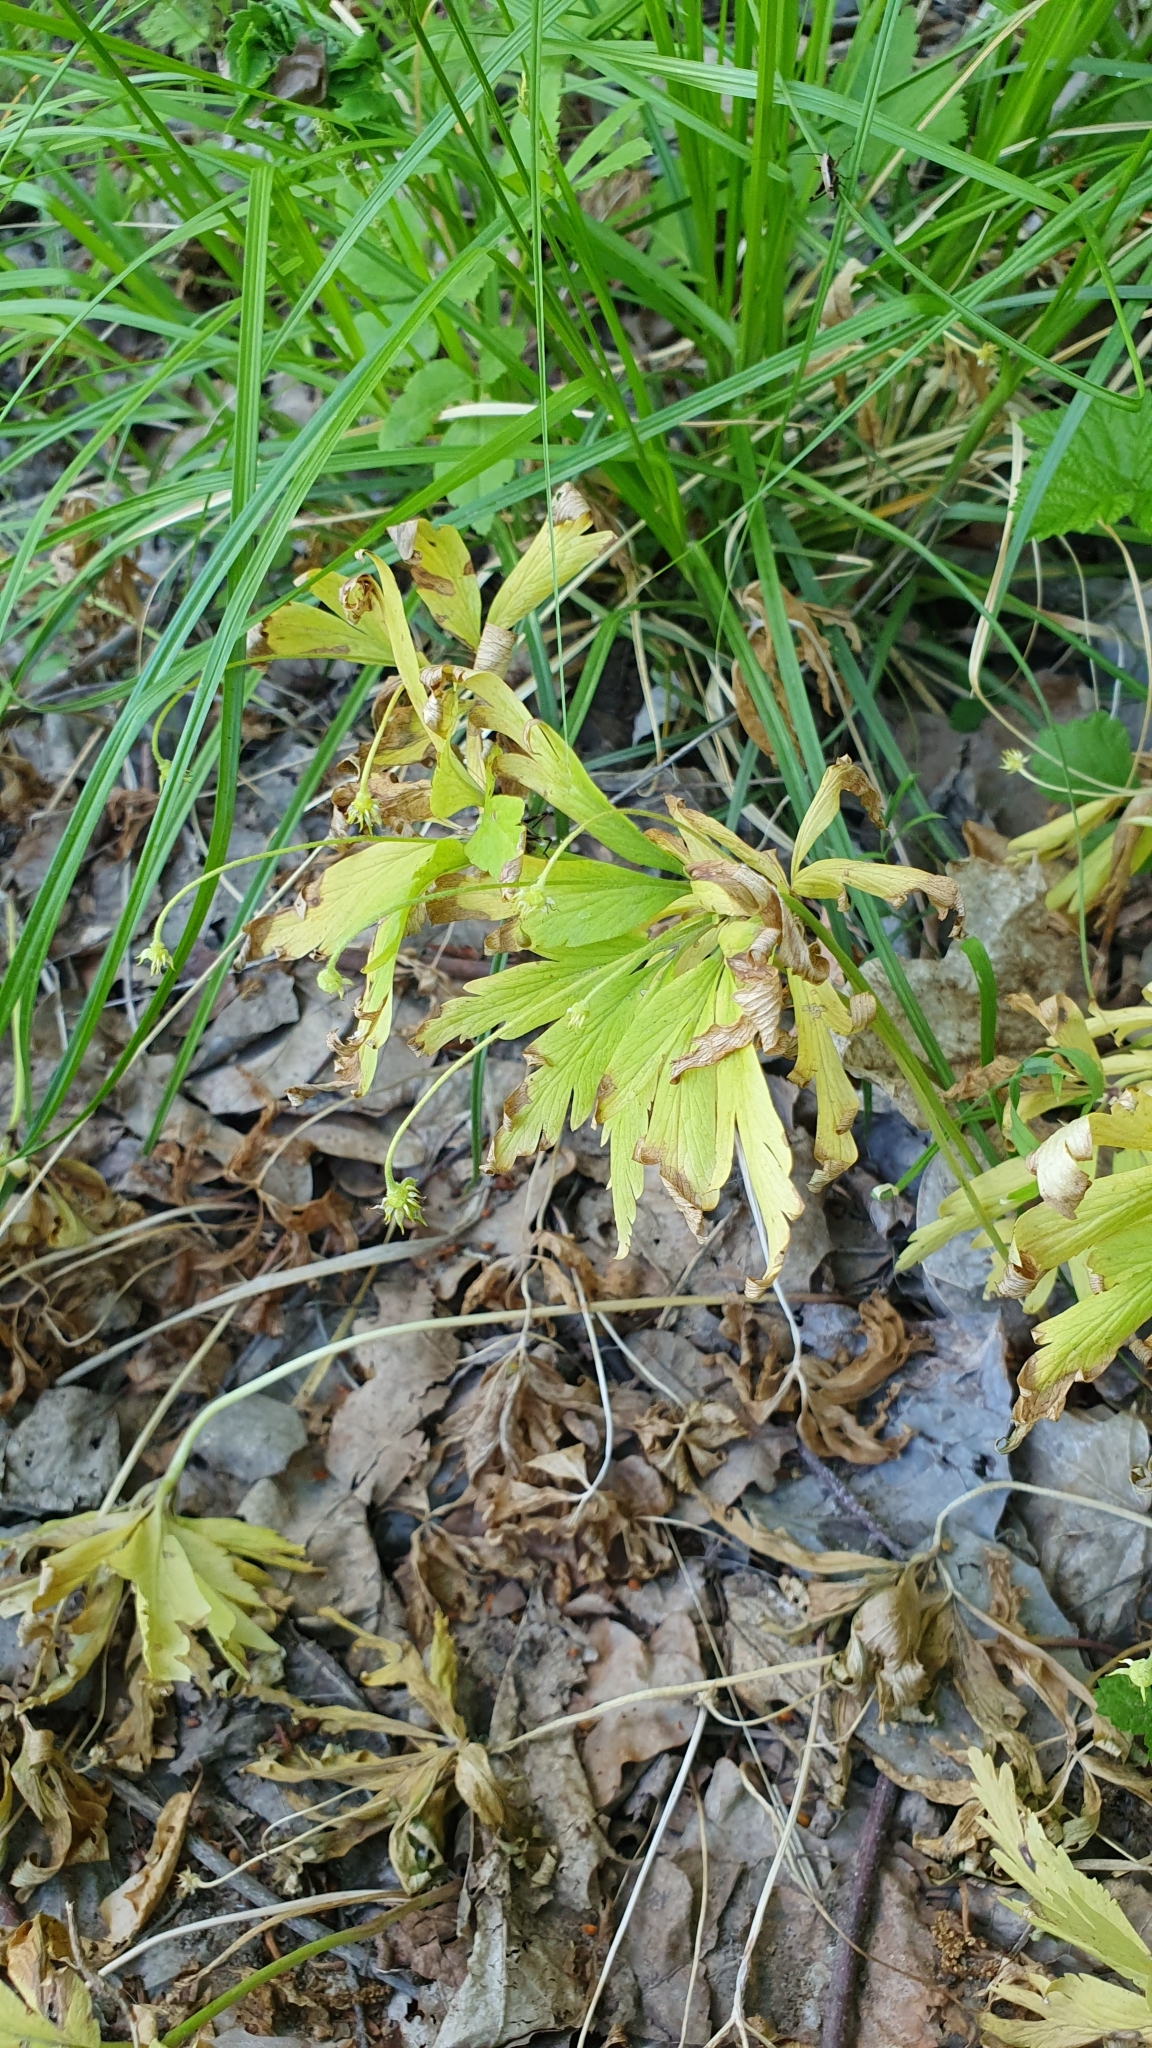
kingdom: Plantae
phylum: Tracheophyta
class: Magnoliopsida
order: Ranunculales
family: Ranunculaceae
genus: Anemone
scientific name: Anemone ranunculoides
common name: Yellow anemone
